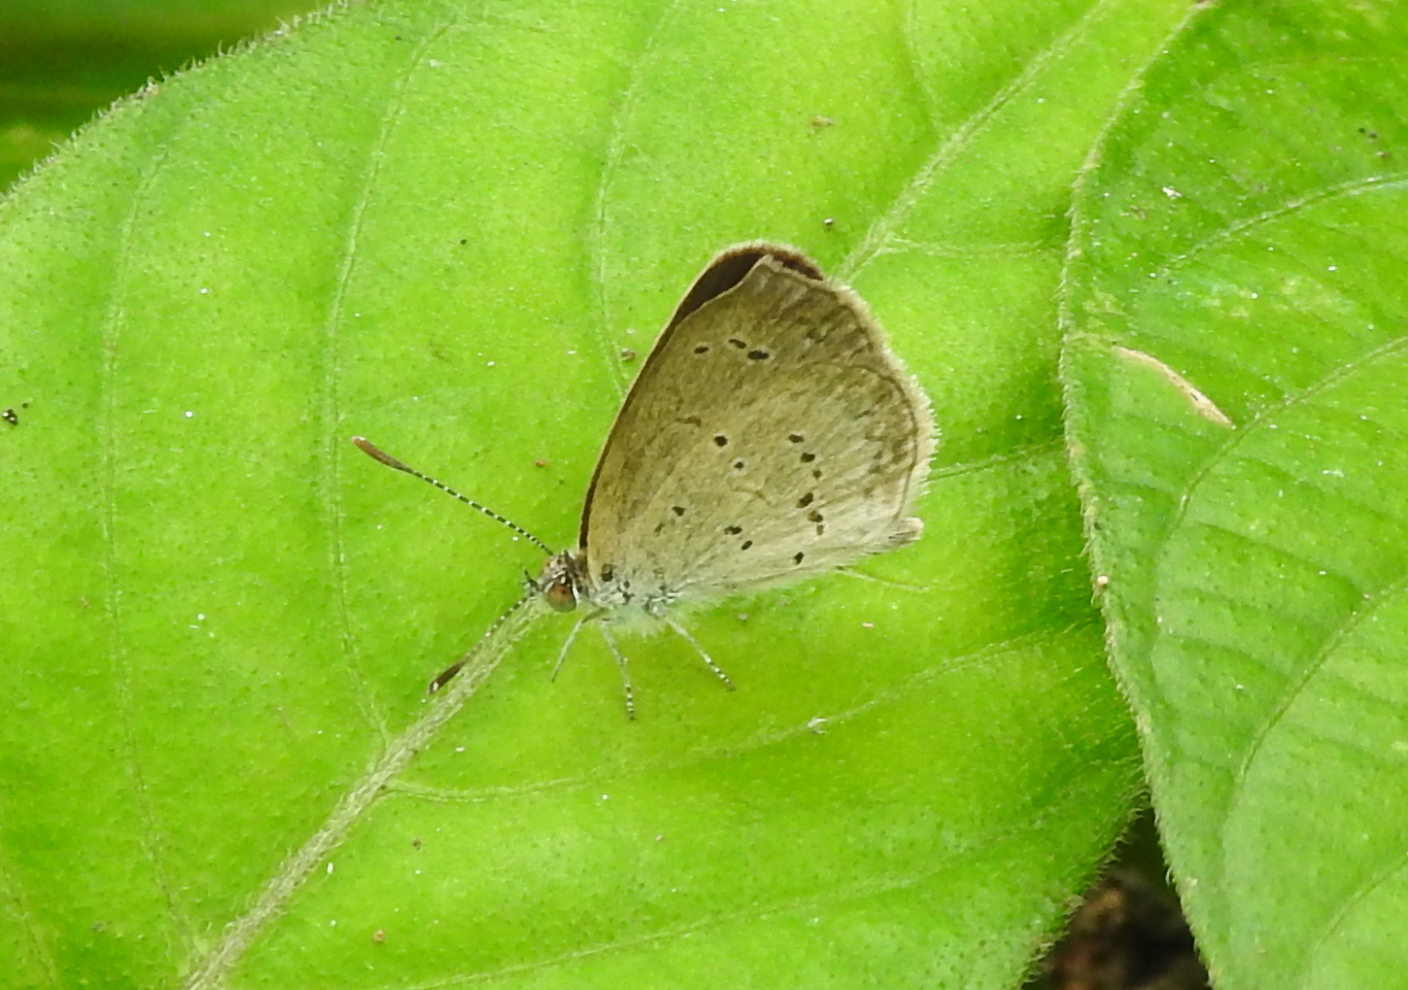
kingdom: Animalia
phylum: Arthropoda
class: Insecta
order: Lepidoptera
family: Lycaenidae
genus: Zizina
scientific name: Zizina otis
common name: Lesser grass blue
